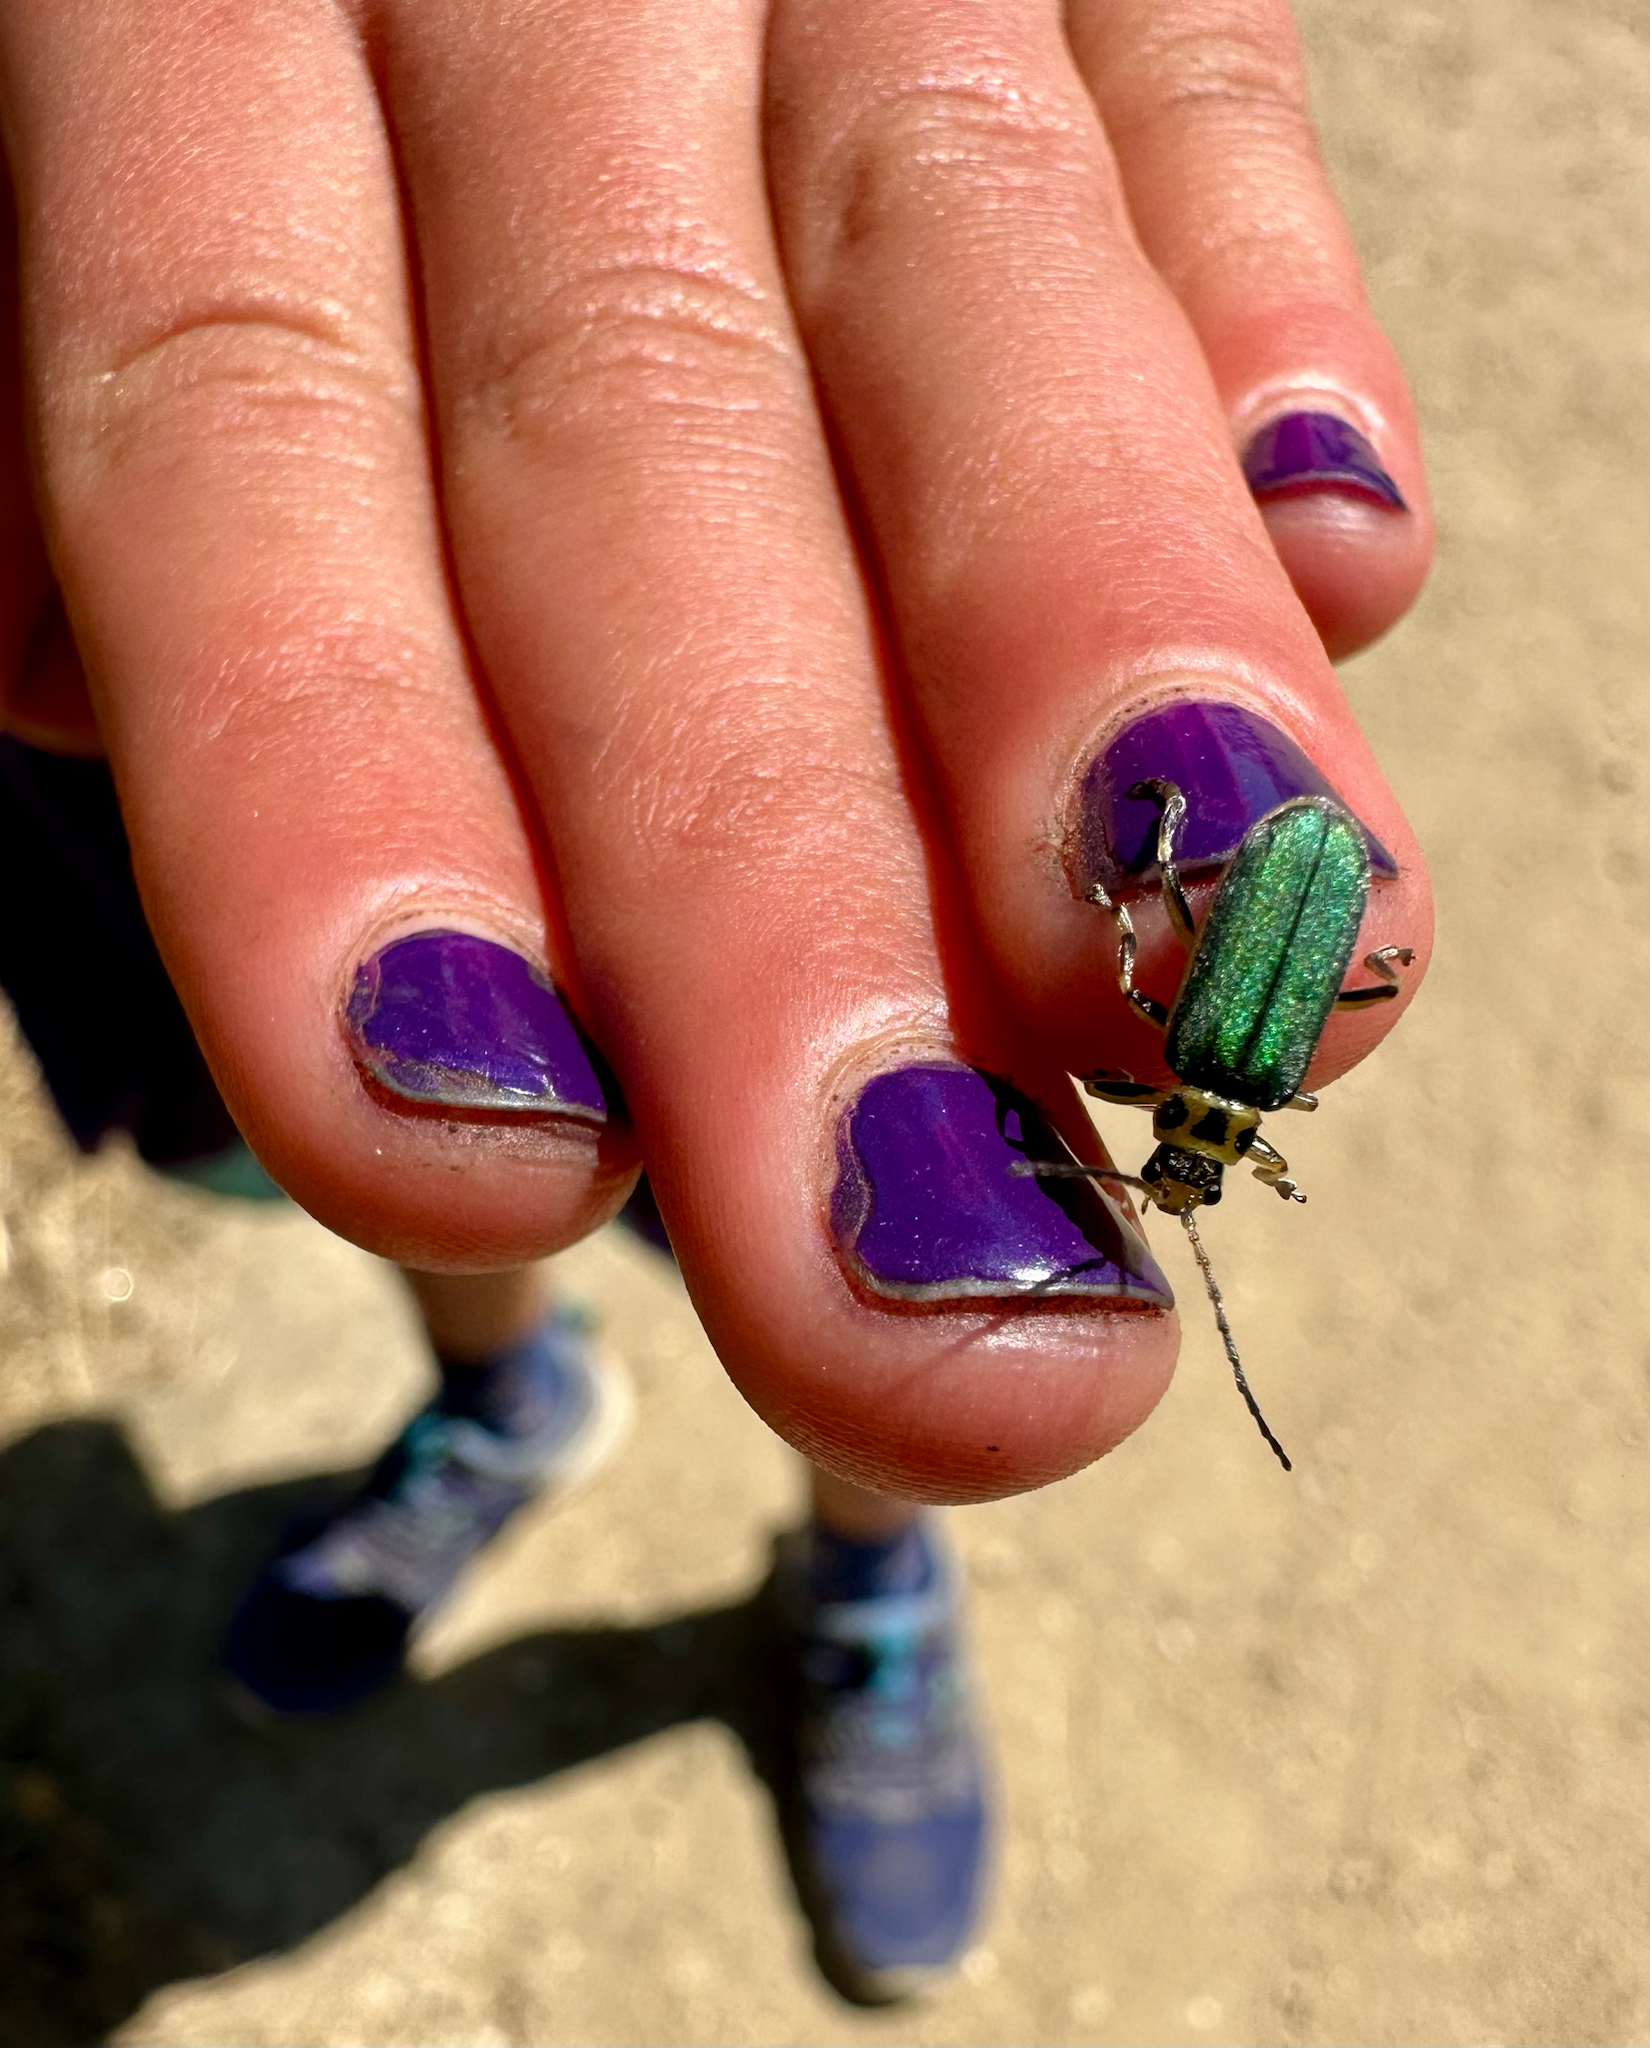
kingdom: Animalia
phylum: Arthropoda
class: Insecta
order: Coleoptera
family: Chrysomelidae
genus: Trirhabda
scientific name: Trirhabda flavolimbata
